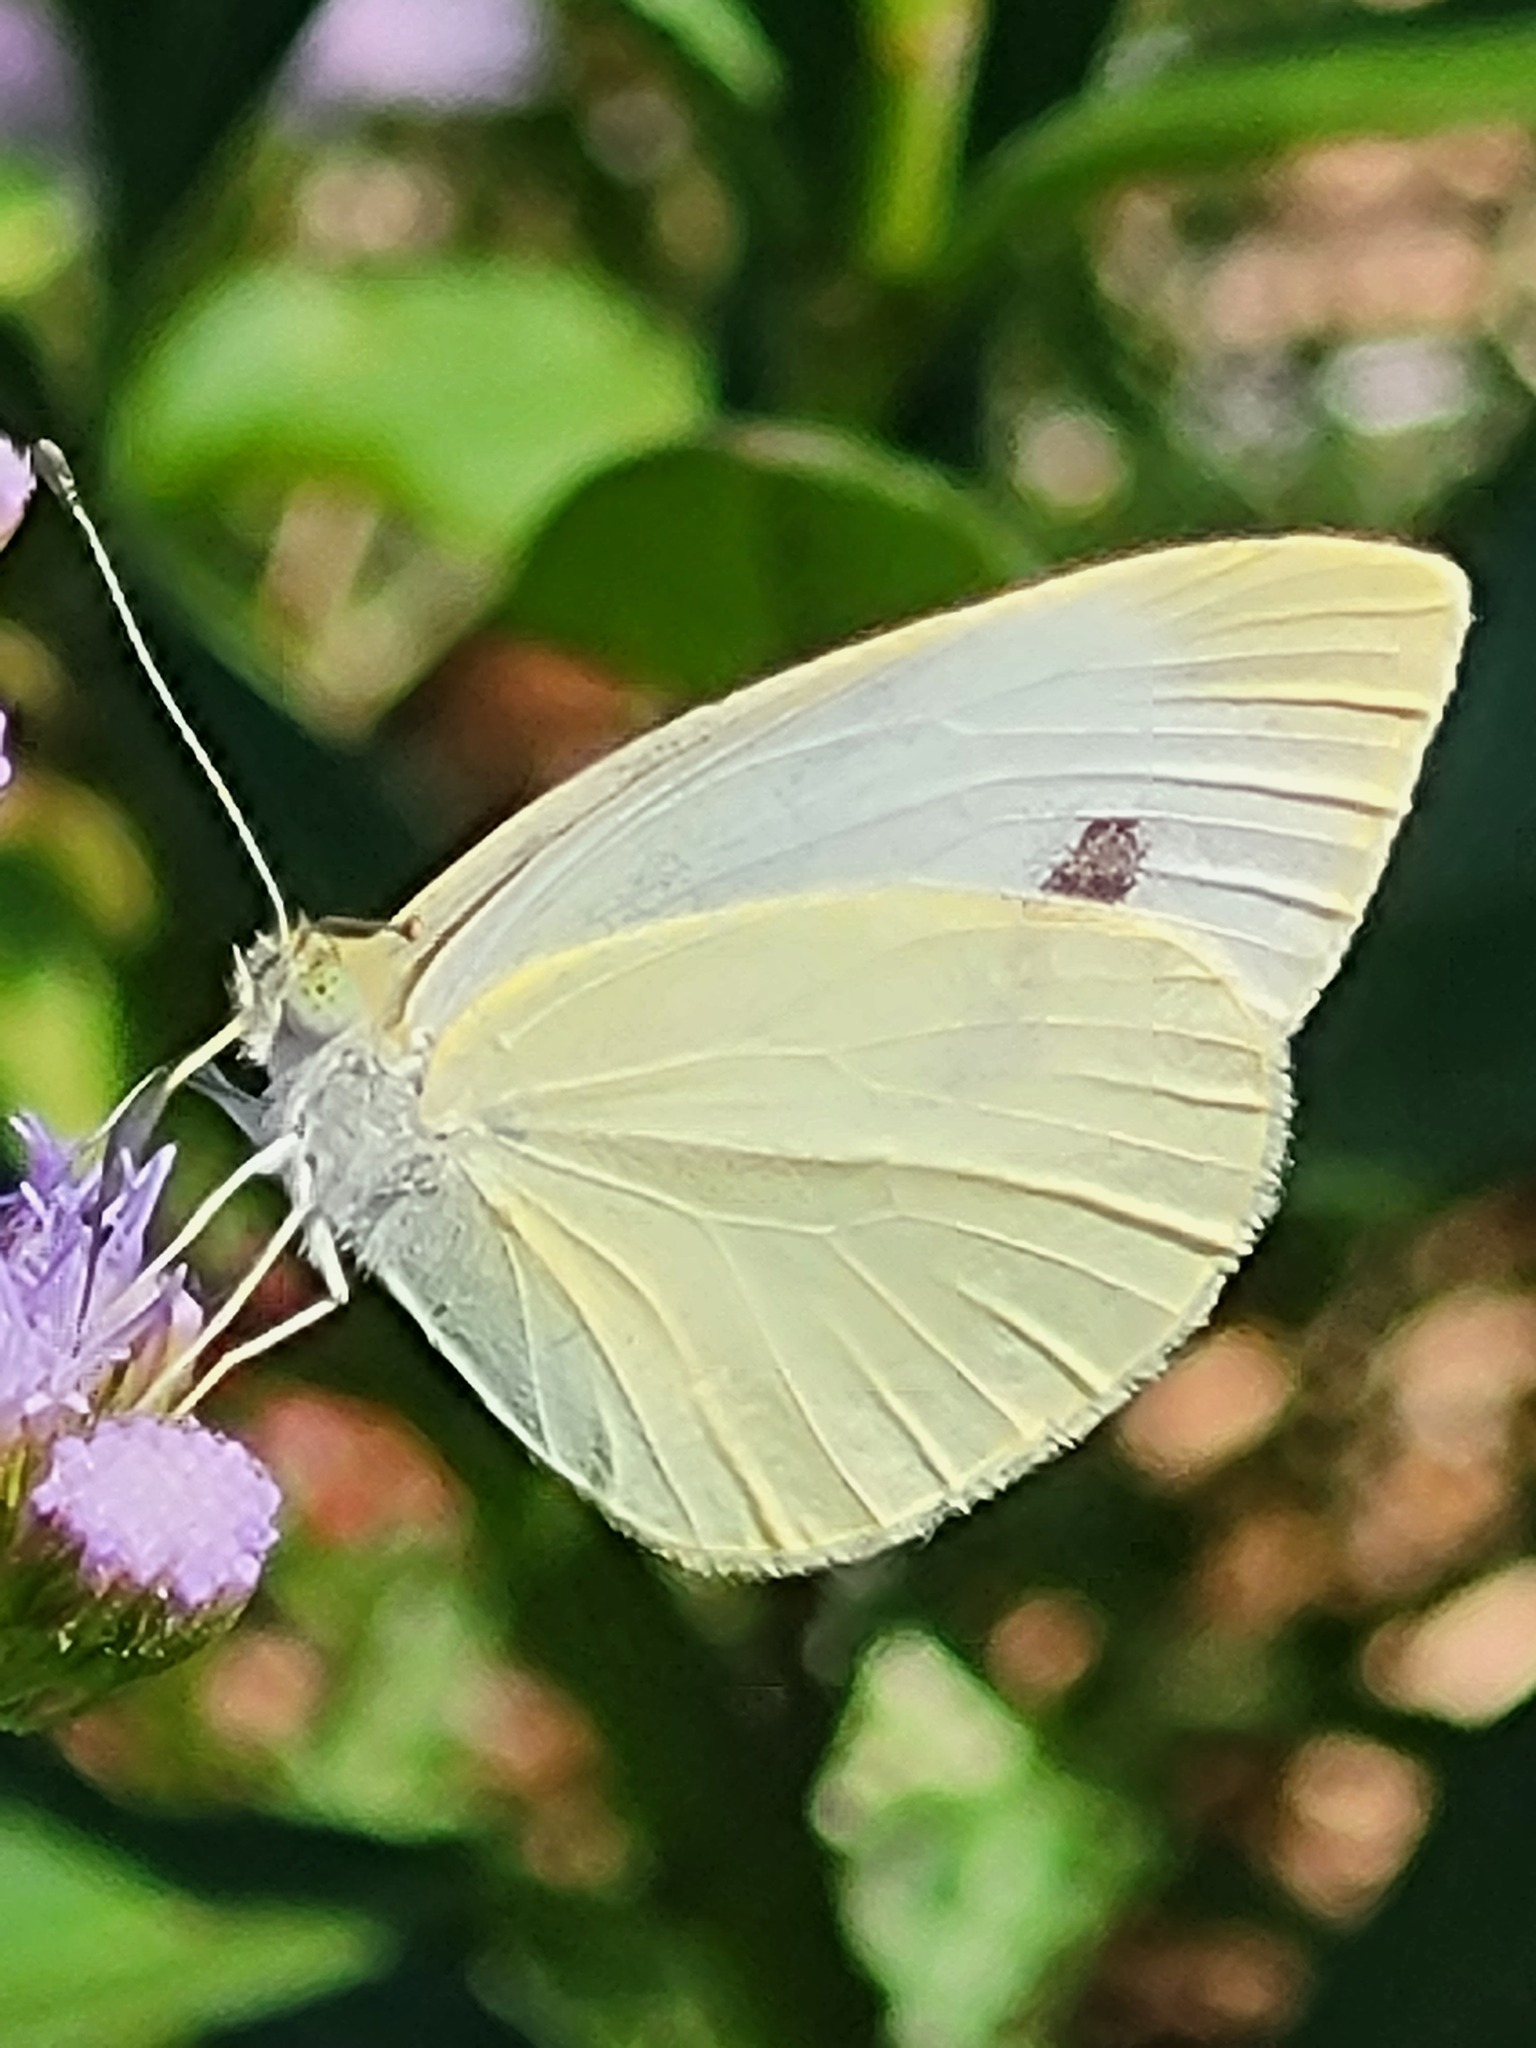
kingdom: Animalia
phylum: Arthropoda
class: Insecta
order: Lepidoptera
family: Pieridae
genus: Pieris
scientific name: Pieris rapae
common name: Small white
